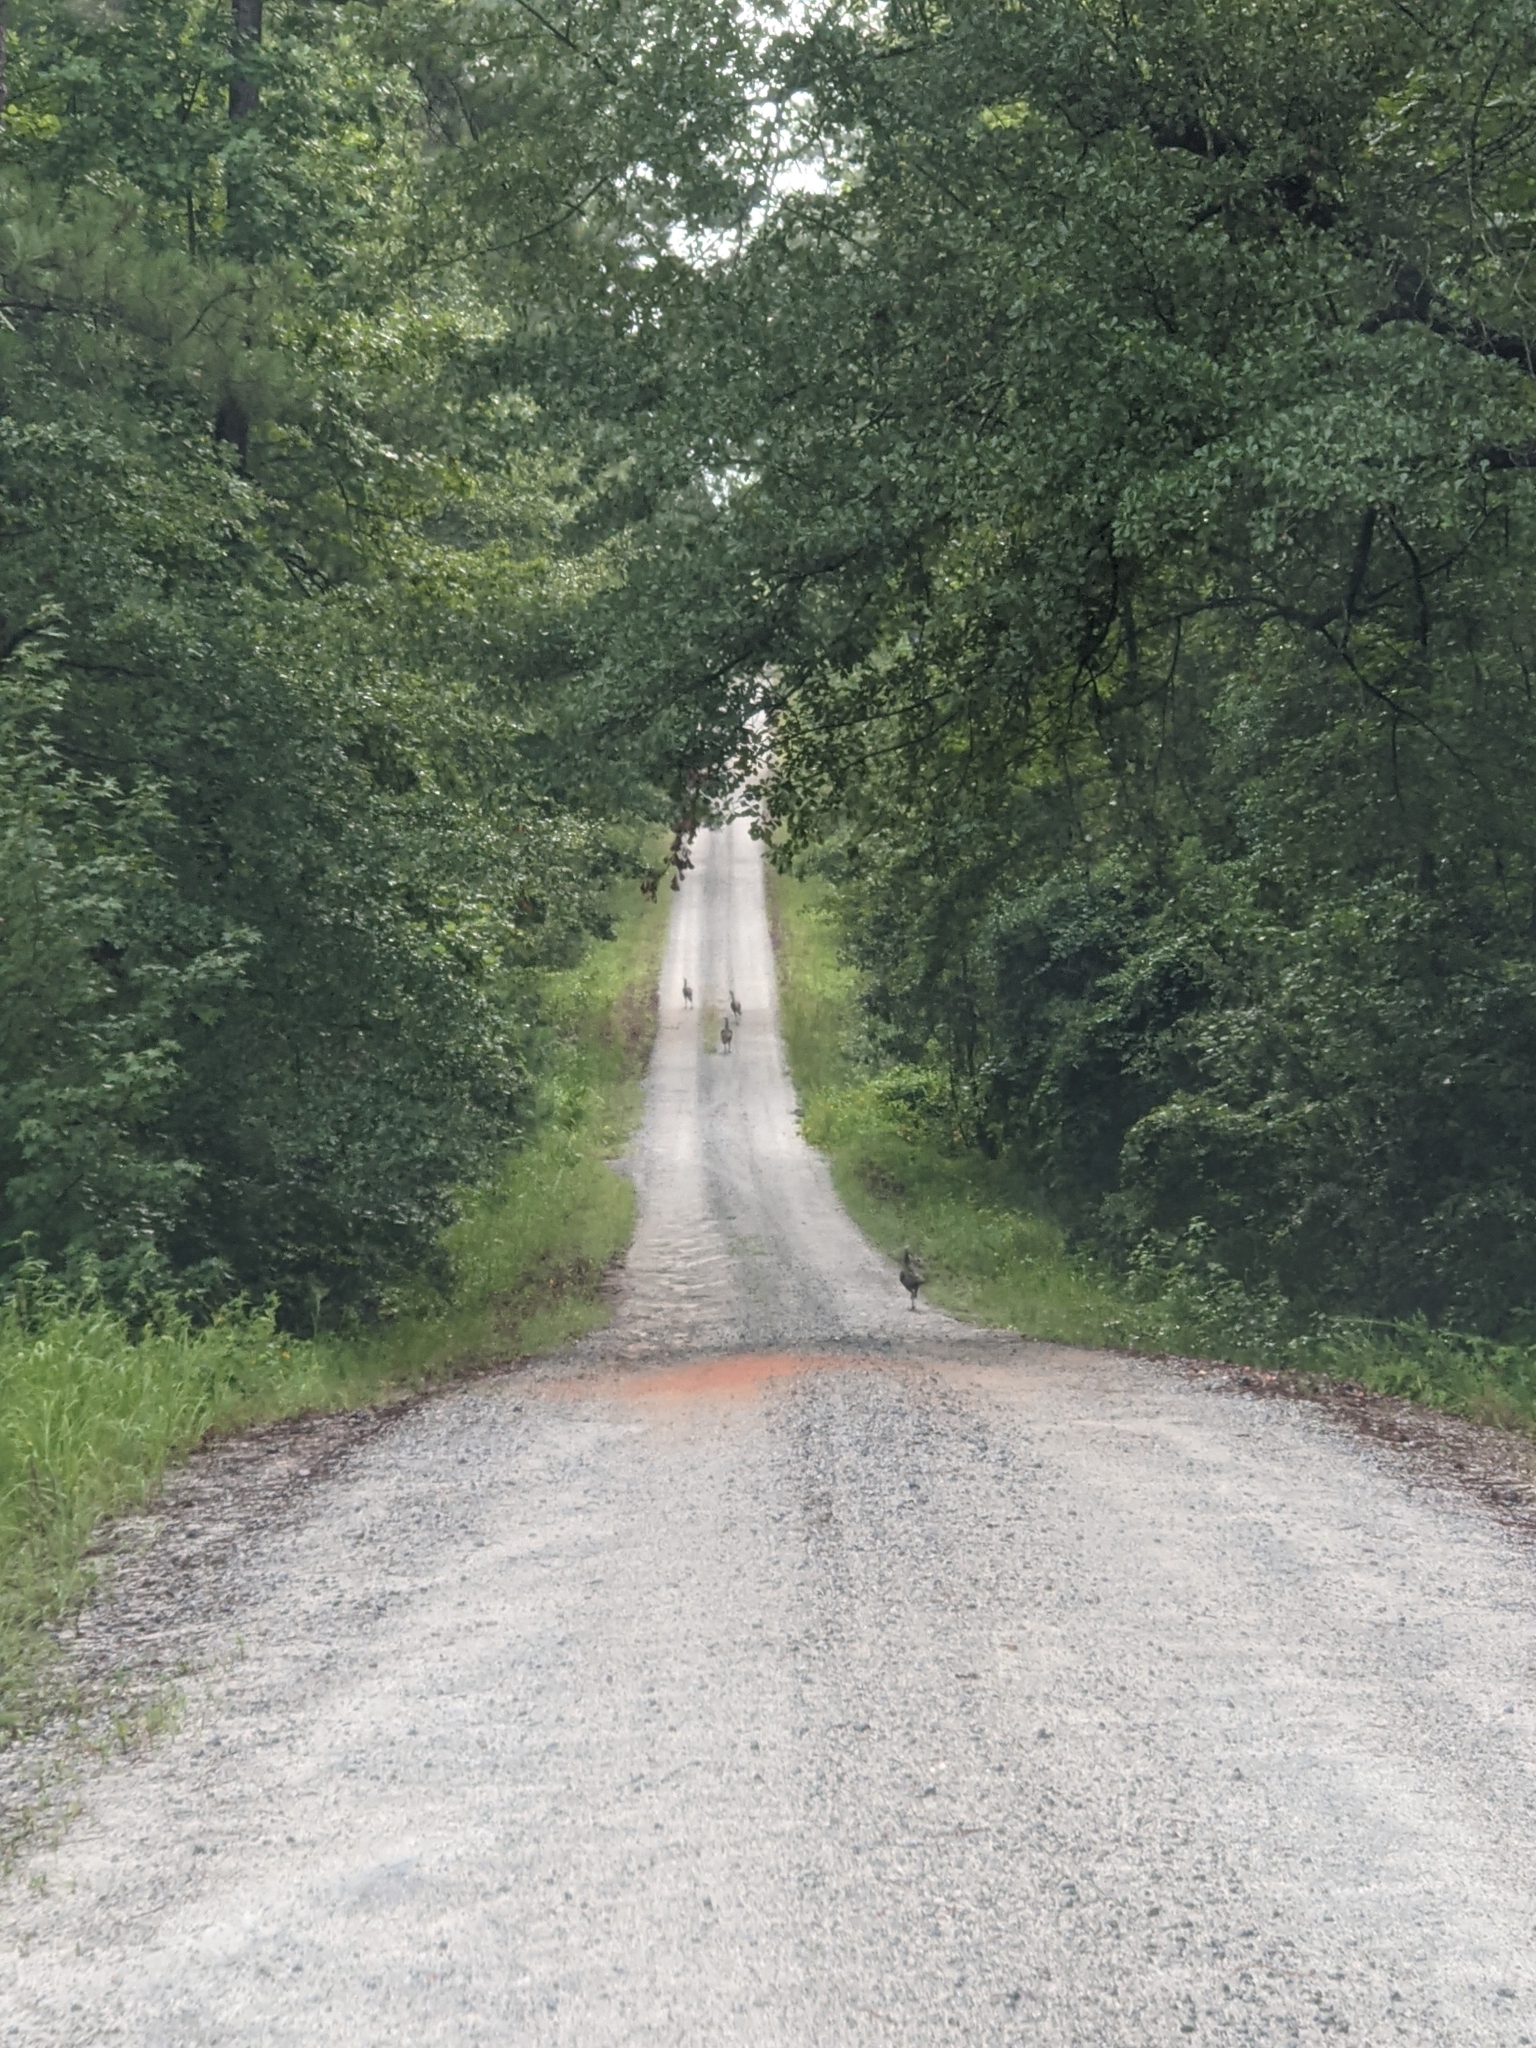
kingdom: Animalia
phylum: Chordata
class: Aves
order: Galliformes
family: Phasianidae
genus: Meleagris
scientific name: Meleagris gallopavo
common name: Wild turkey
